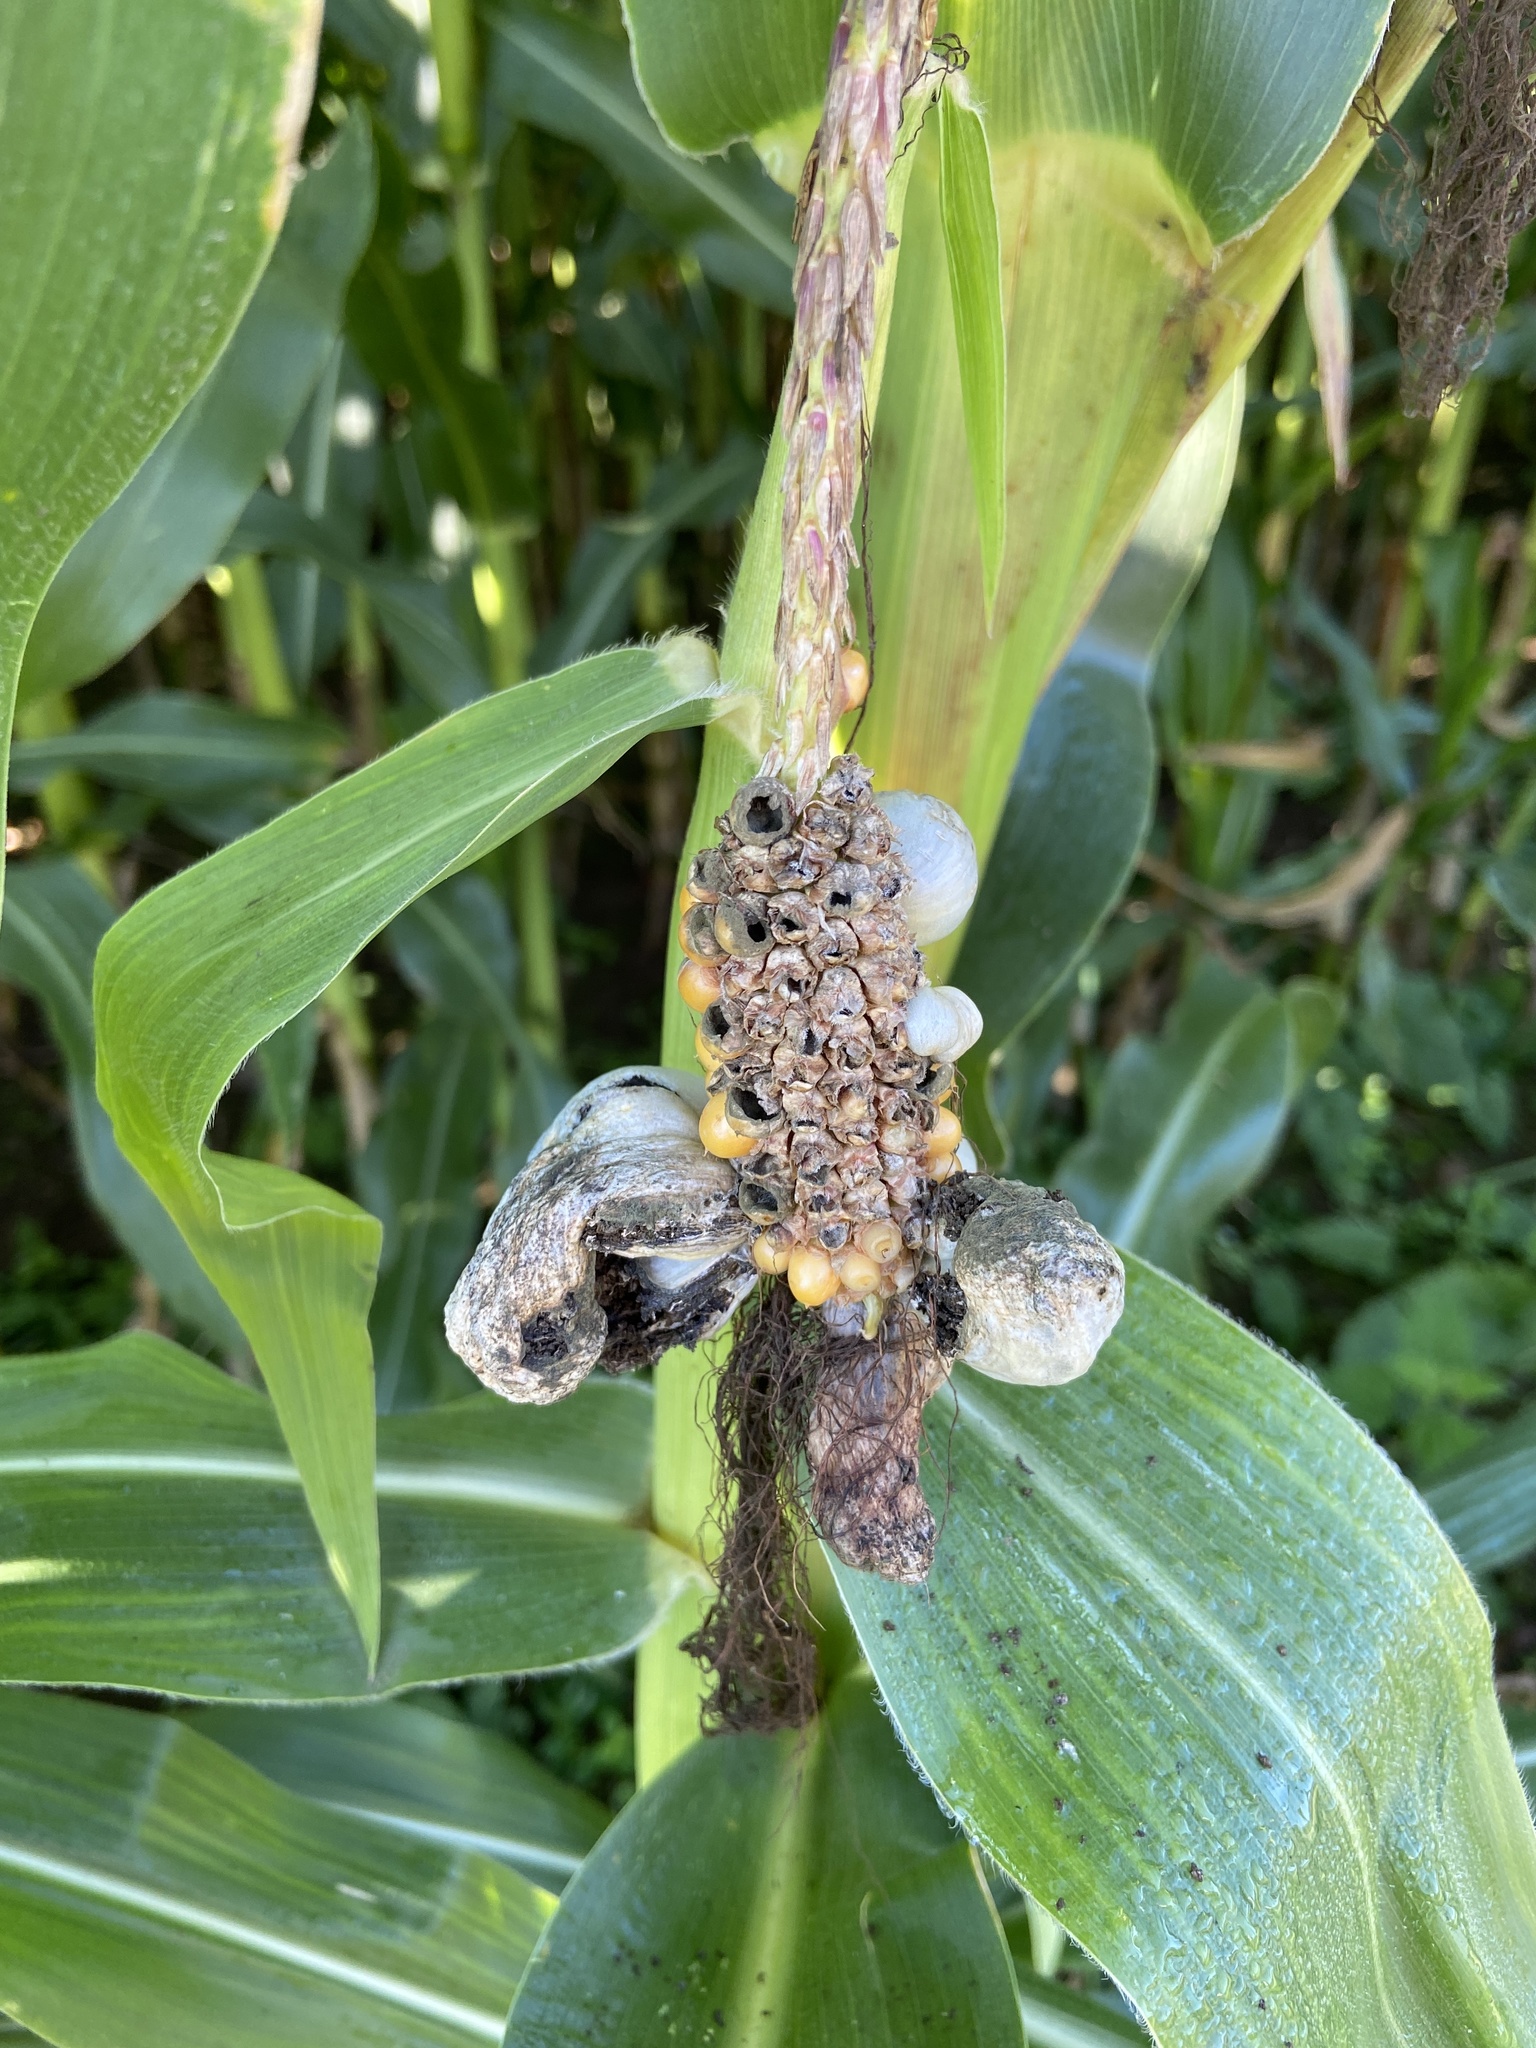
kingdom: Fungi
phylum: Basidiomycota
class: Ustilaginomycetes
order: Ustilaginales
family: Ustilaginaceae
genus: Mycosarcoma
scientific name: Mycosarcoma maydis
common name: Corn smut
